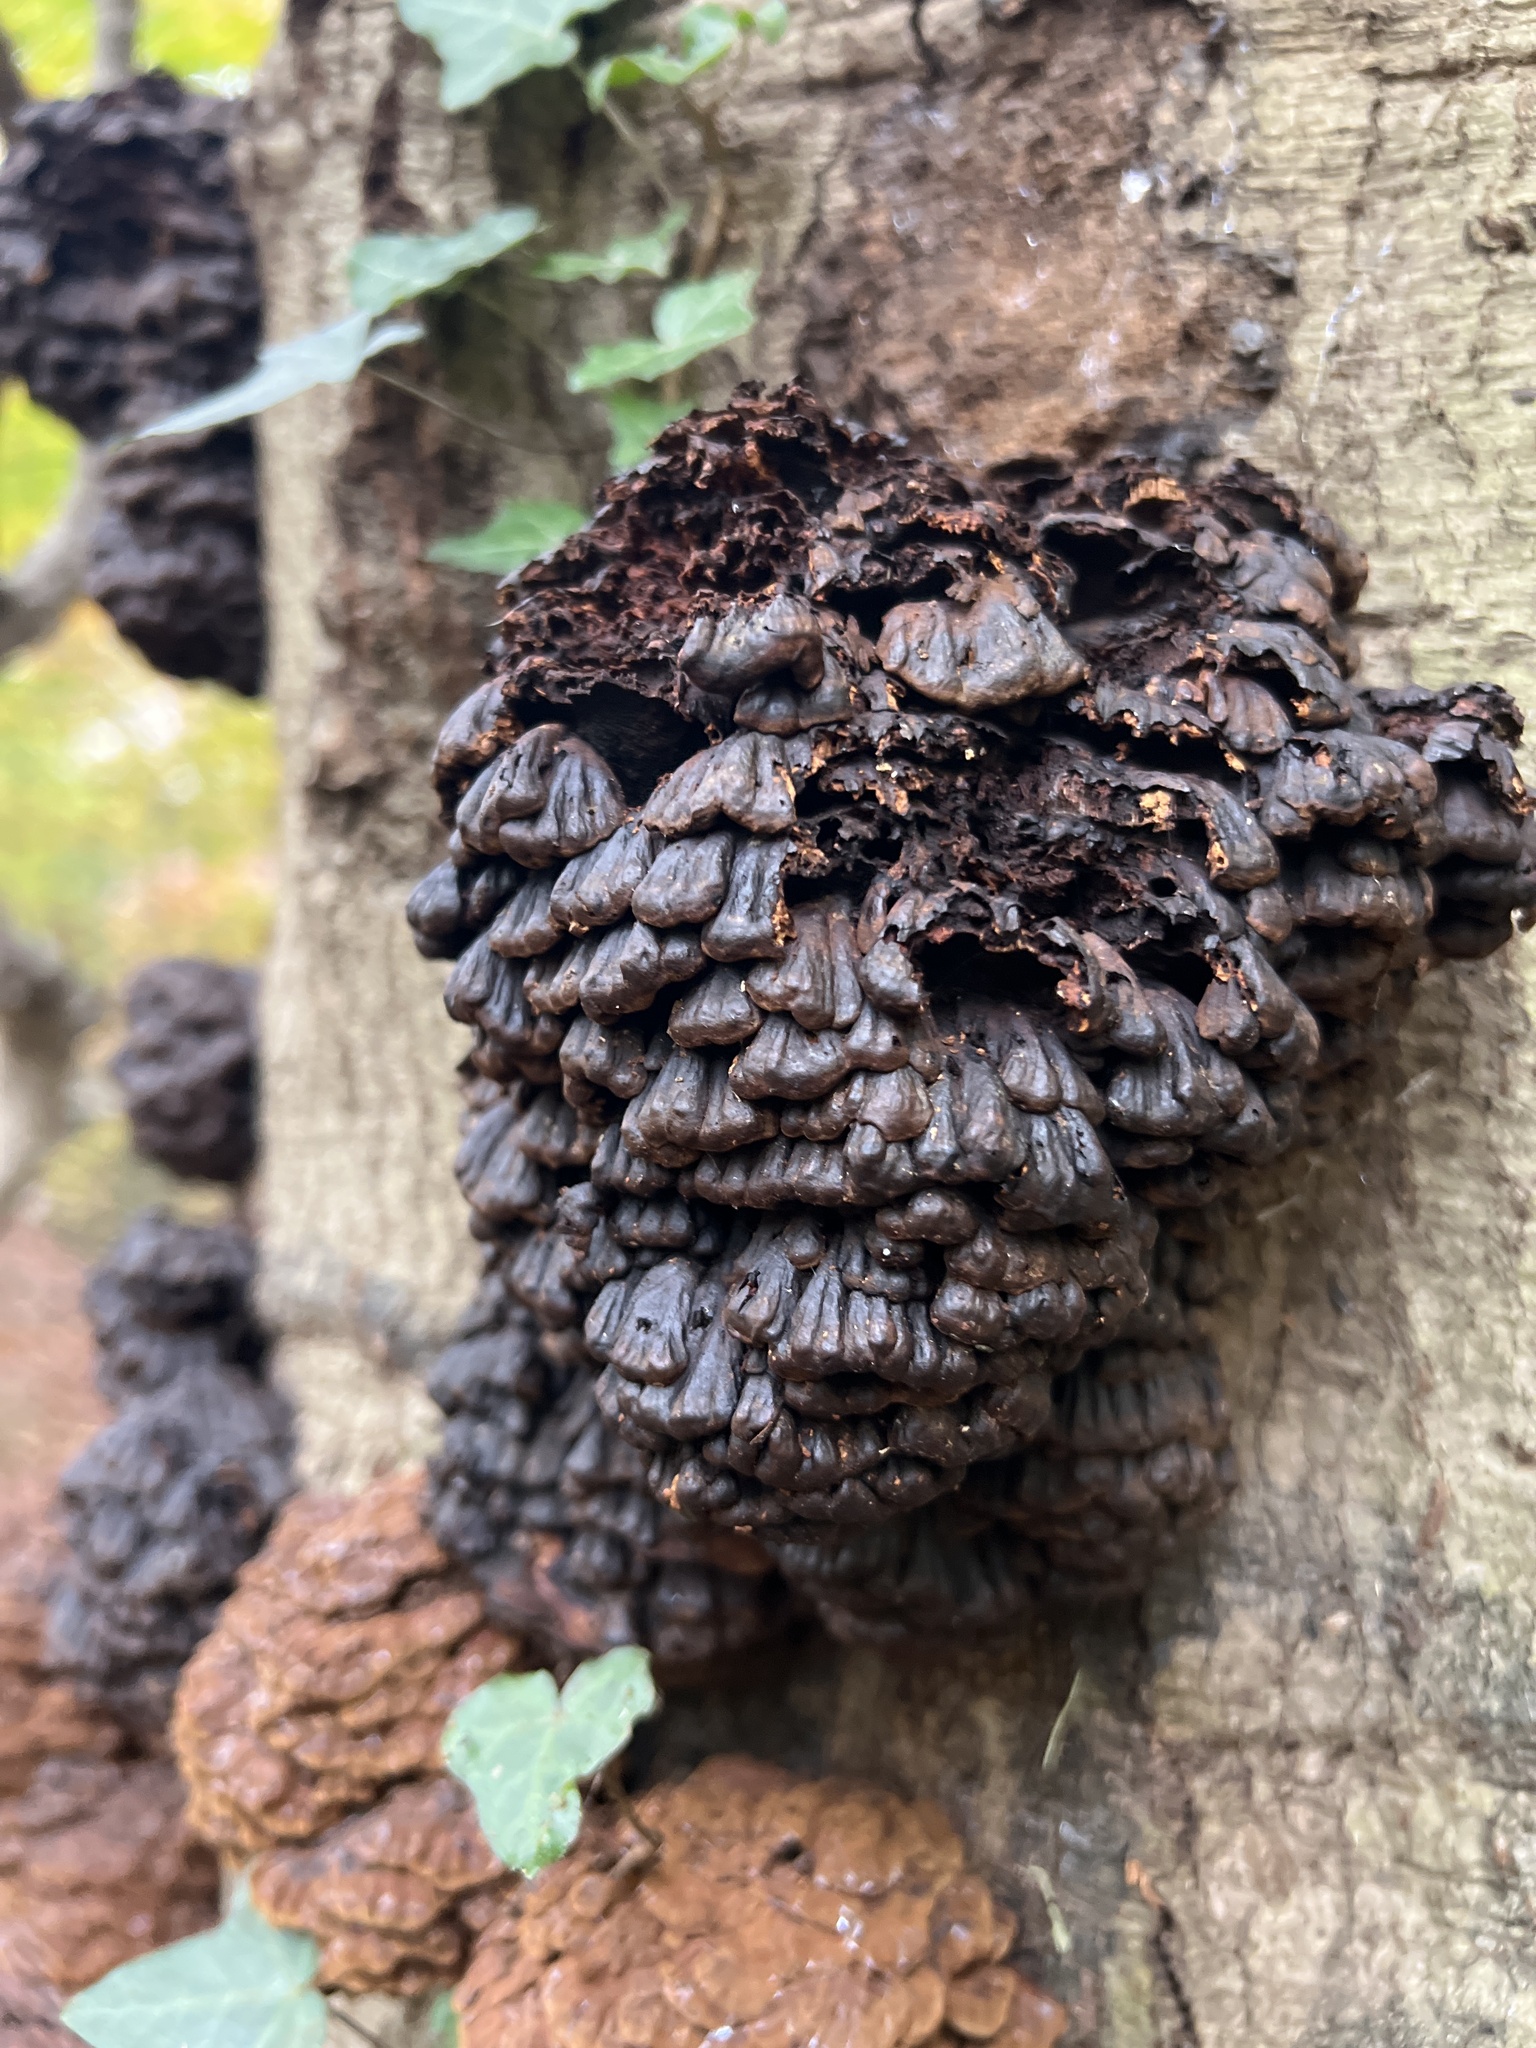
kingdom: Fungi
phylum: Basidiomycota
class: Agaricomycetes
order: Polyporales
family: Polyporaceae
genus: Globifomes
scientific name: Globifomes graveolens
